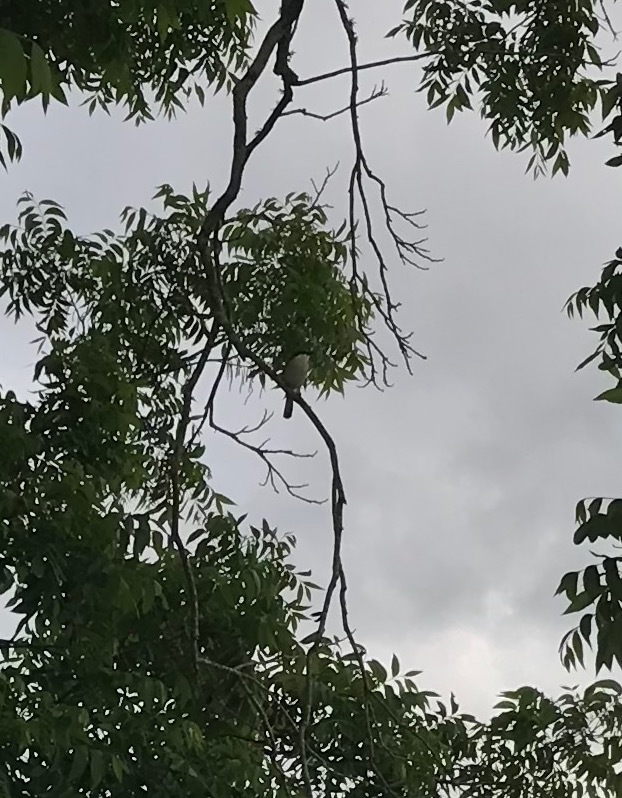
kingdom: Animalia
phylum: Chordata
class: Aves
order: Passeriformes
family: Laniidae
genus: Lanius
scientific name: Lanius ludovicianus
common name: Loggerhead shrike
